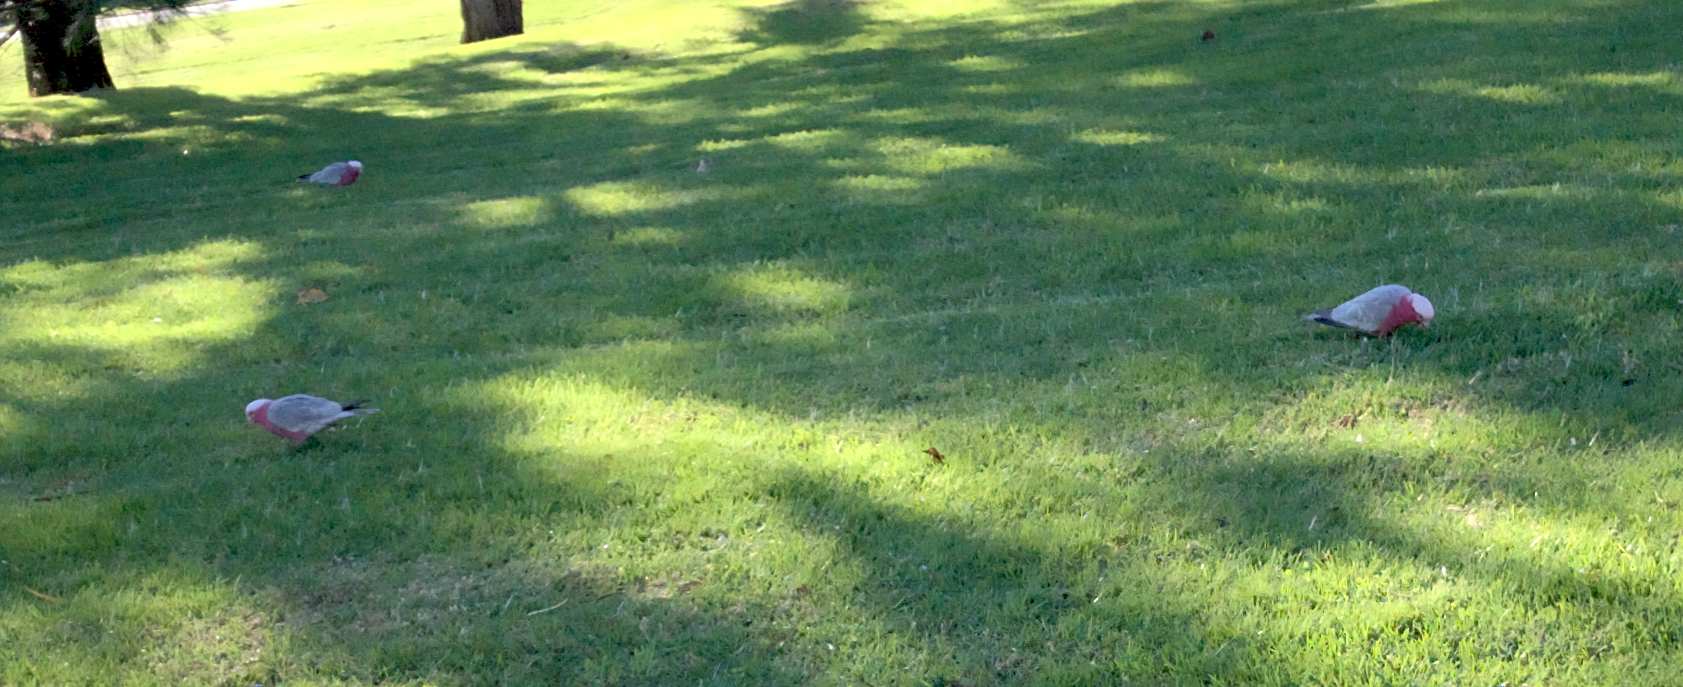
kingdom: Animalia
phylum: Chordata
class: Aves
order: Psittaciformes
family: Psittacidae
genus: Eolophus
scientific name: Eolophus roseicapilla
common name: Galah
